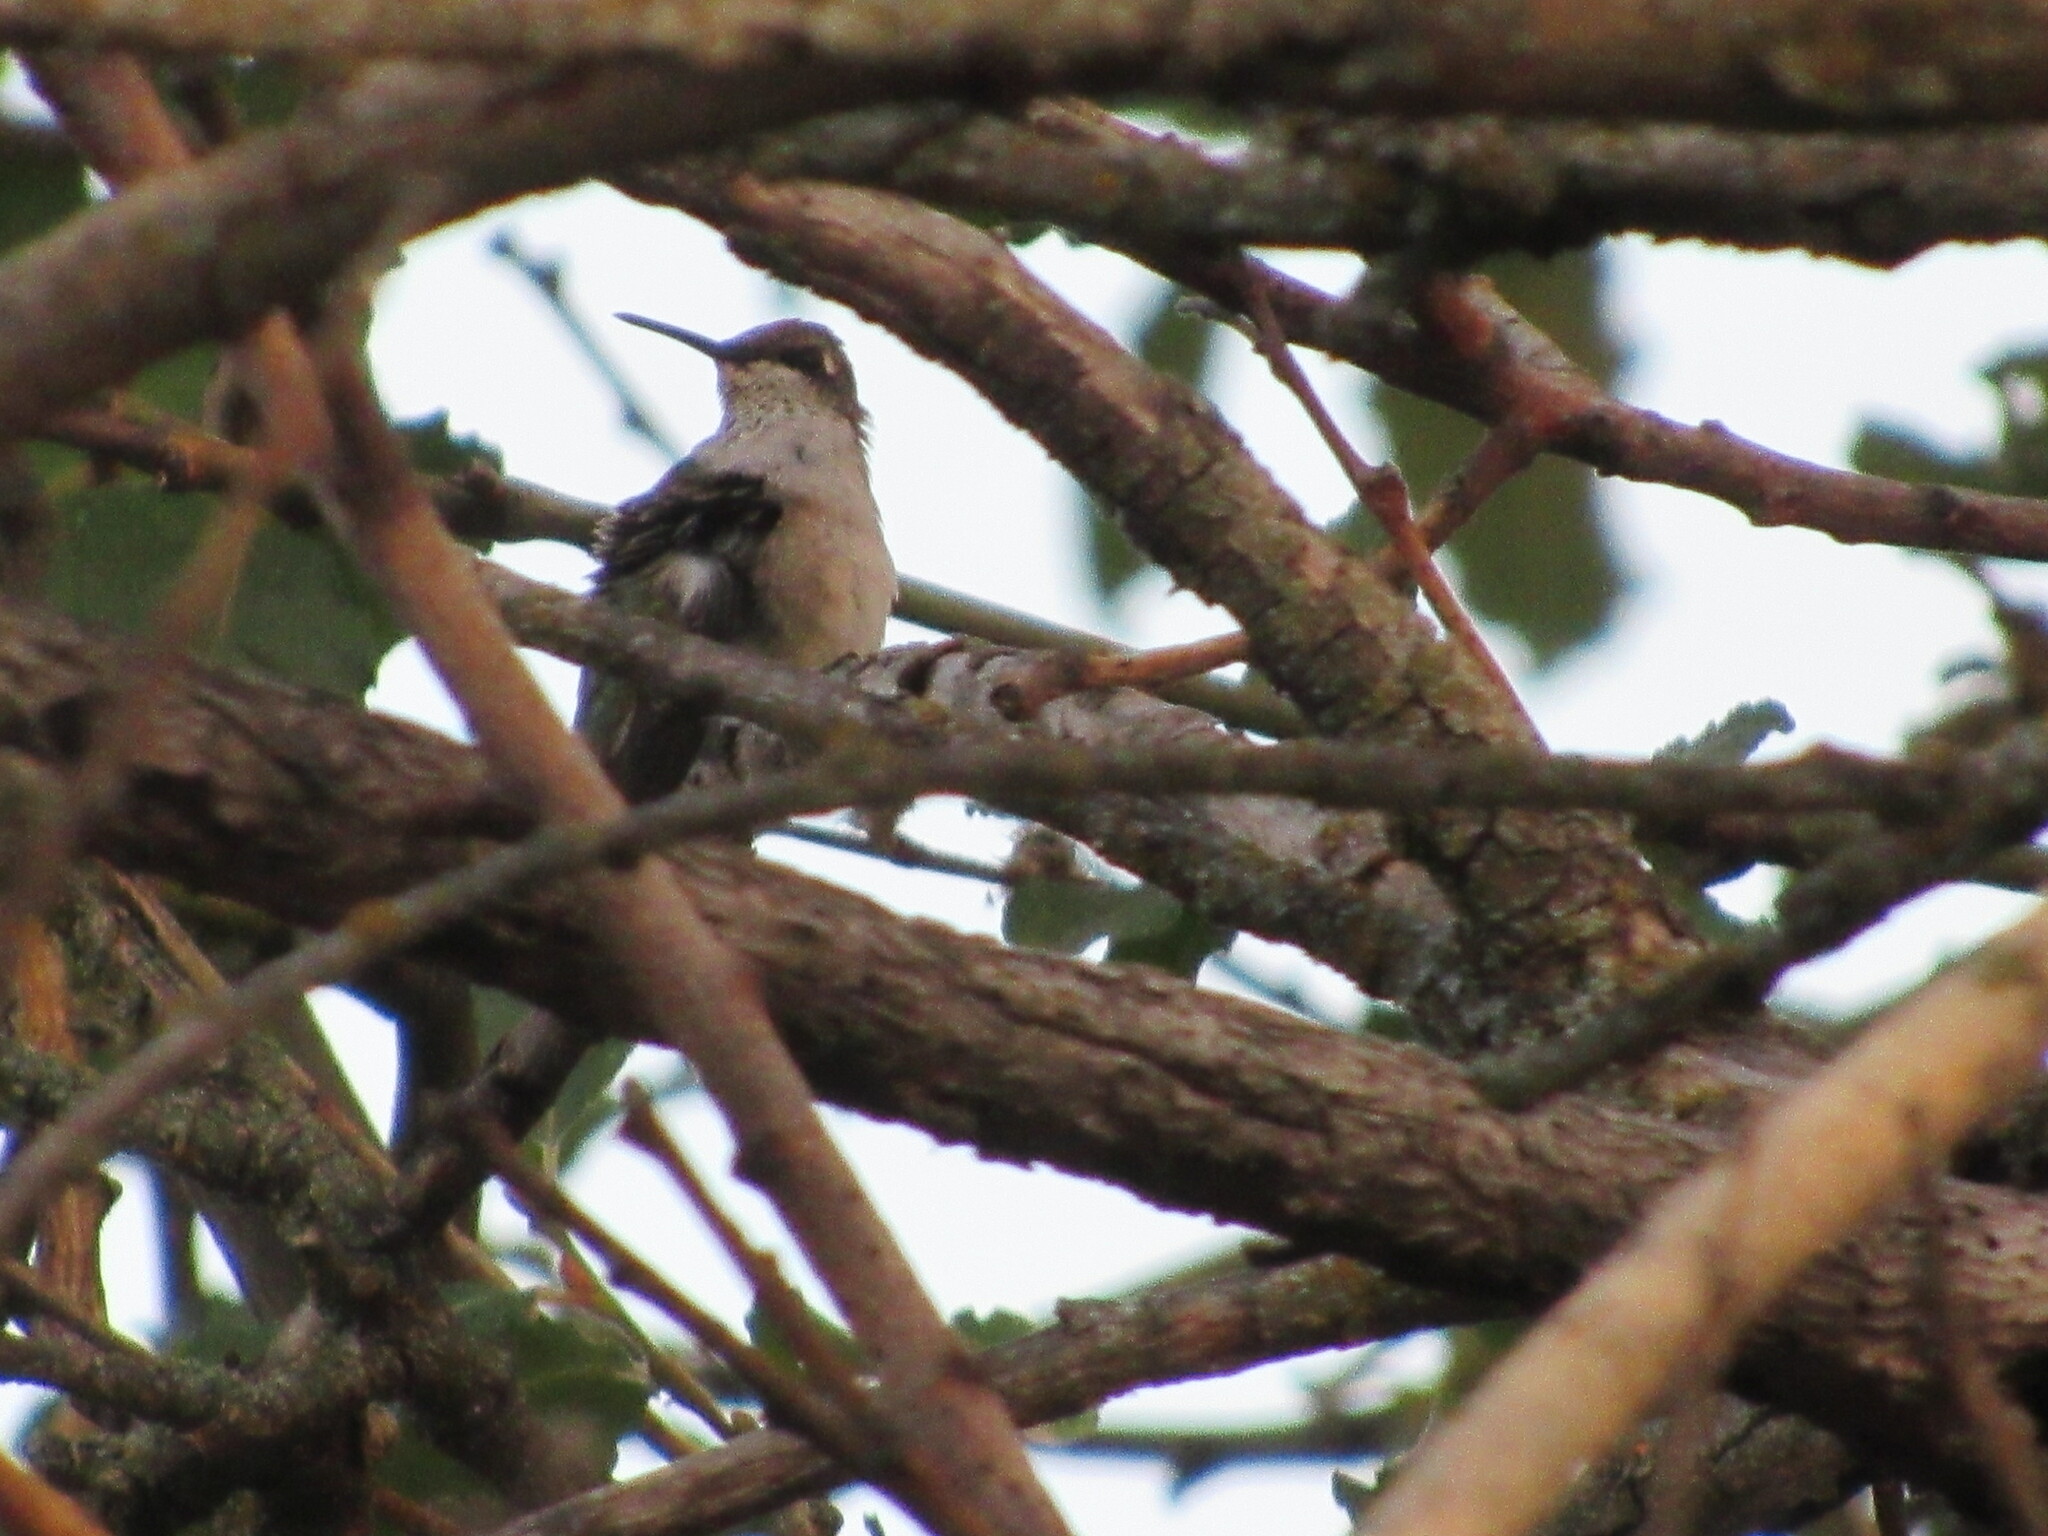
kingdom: Animalia
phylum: Chordata
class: Aves
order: Apodiformes
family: Trochilidae
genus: Selasphorus
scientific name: Selasphorus rufus
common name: Rufous hummingbird
